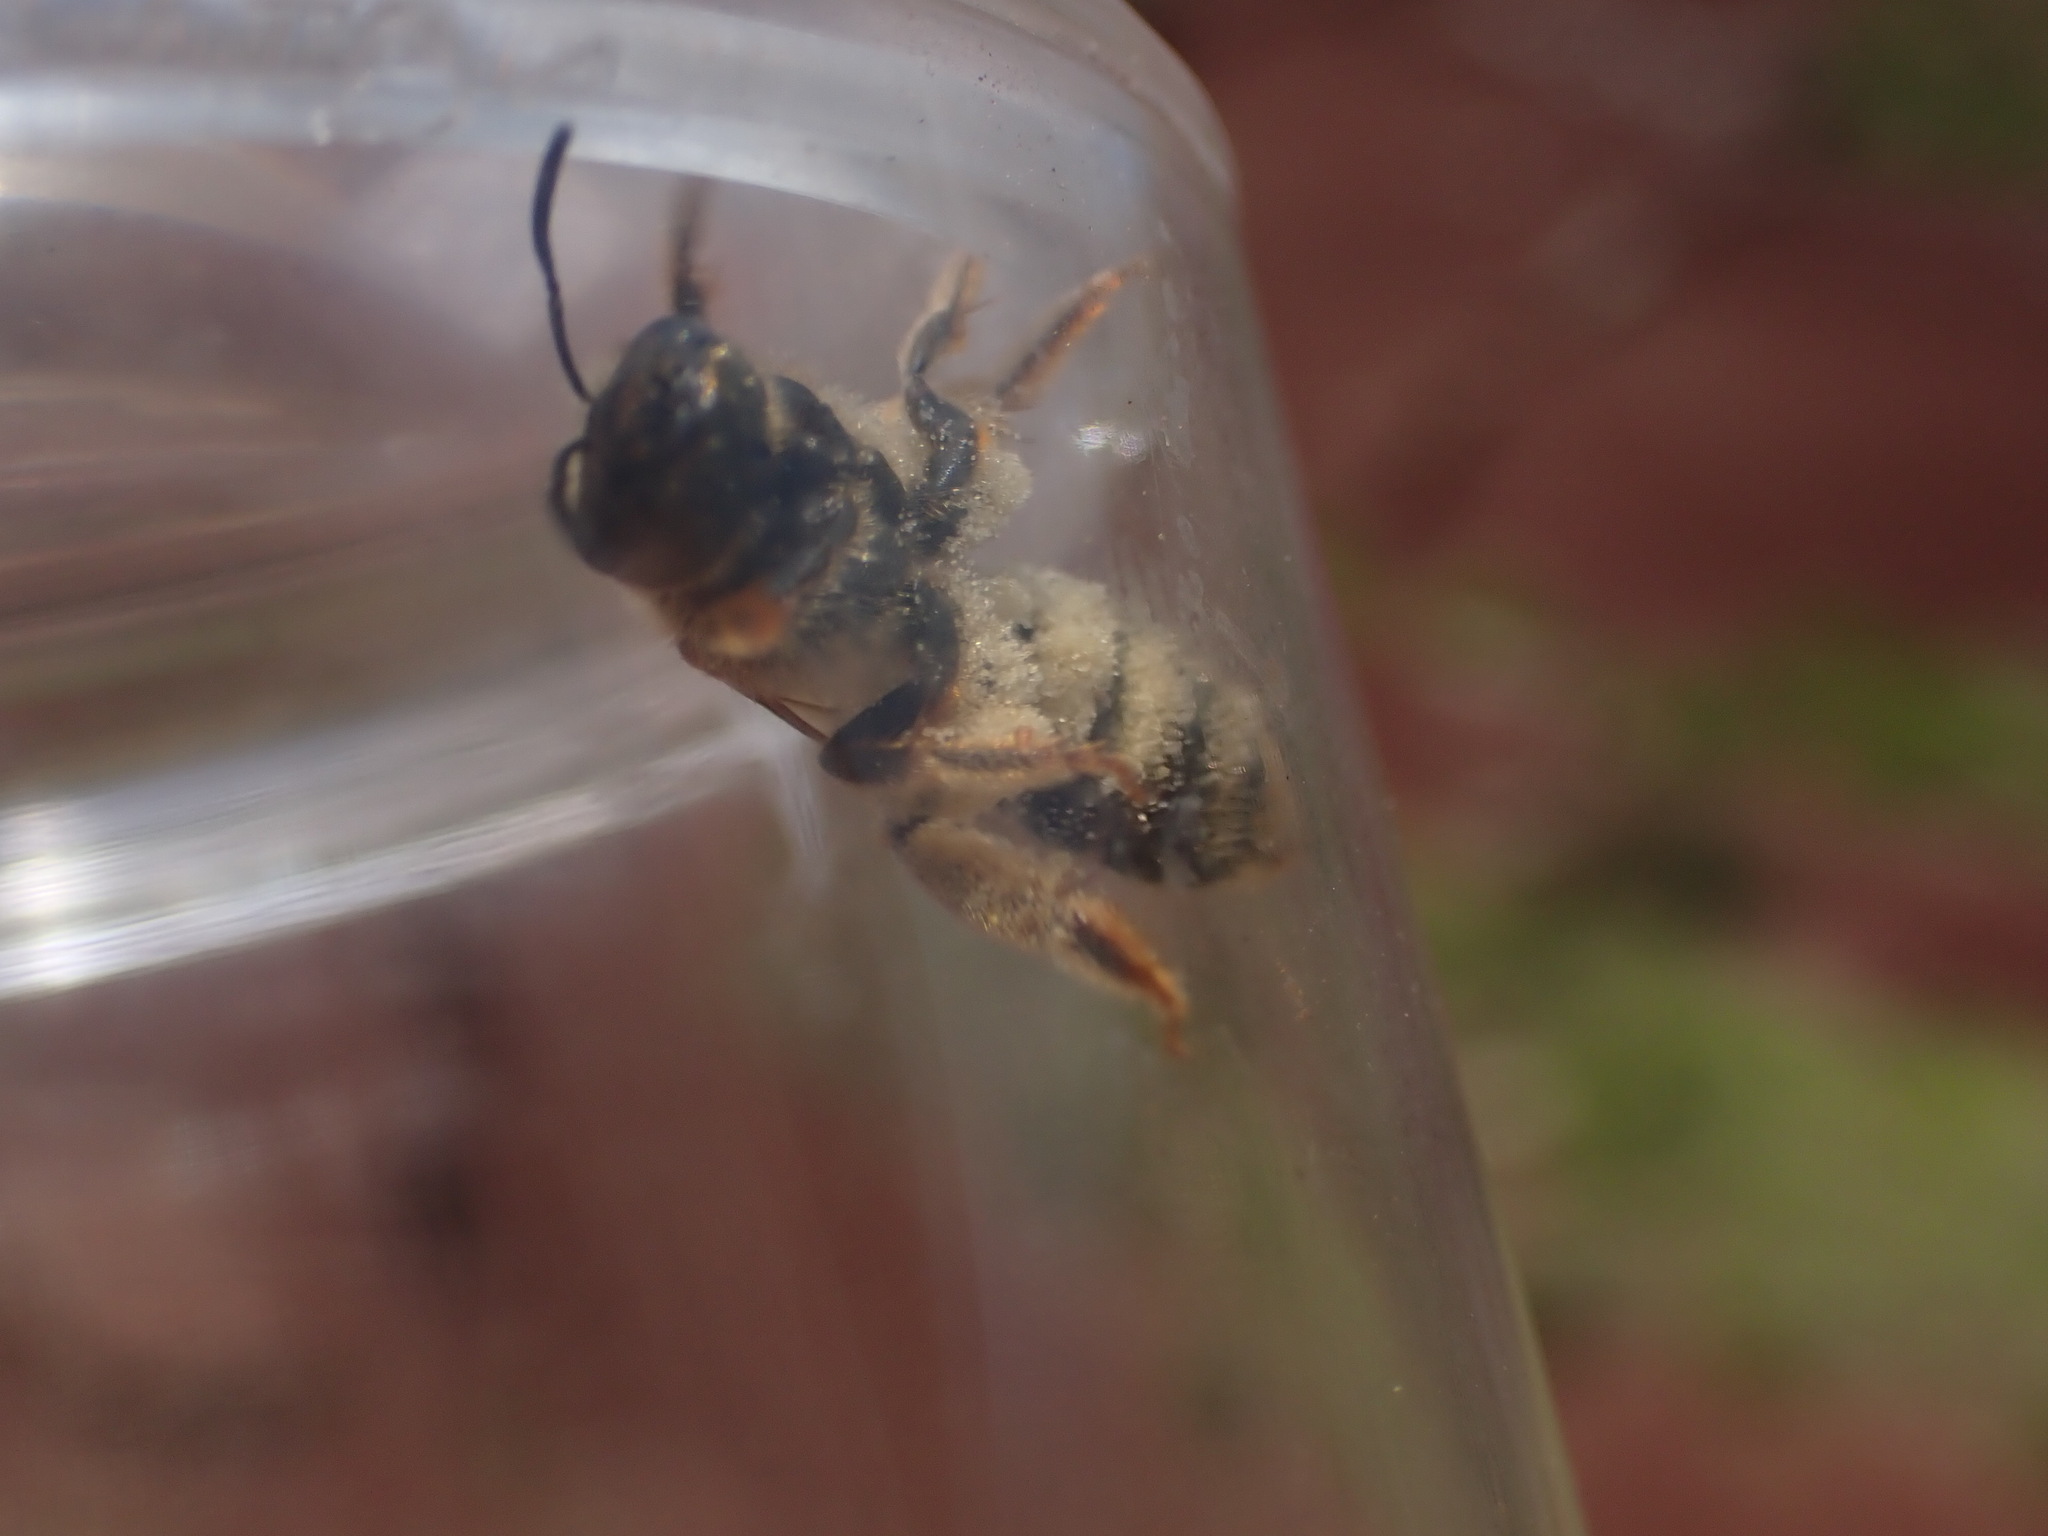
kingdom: Animalia
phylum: Arthropoda
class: Insecta
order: Hymenoptera
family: Halictidae
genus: Halictus
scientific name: Halictus scabiosae
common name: Great banded furrow bee
